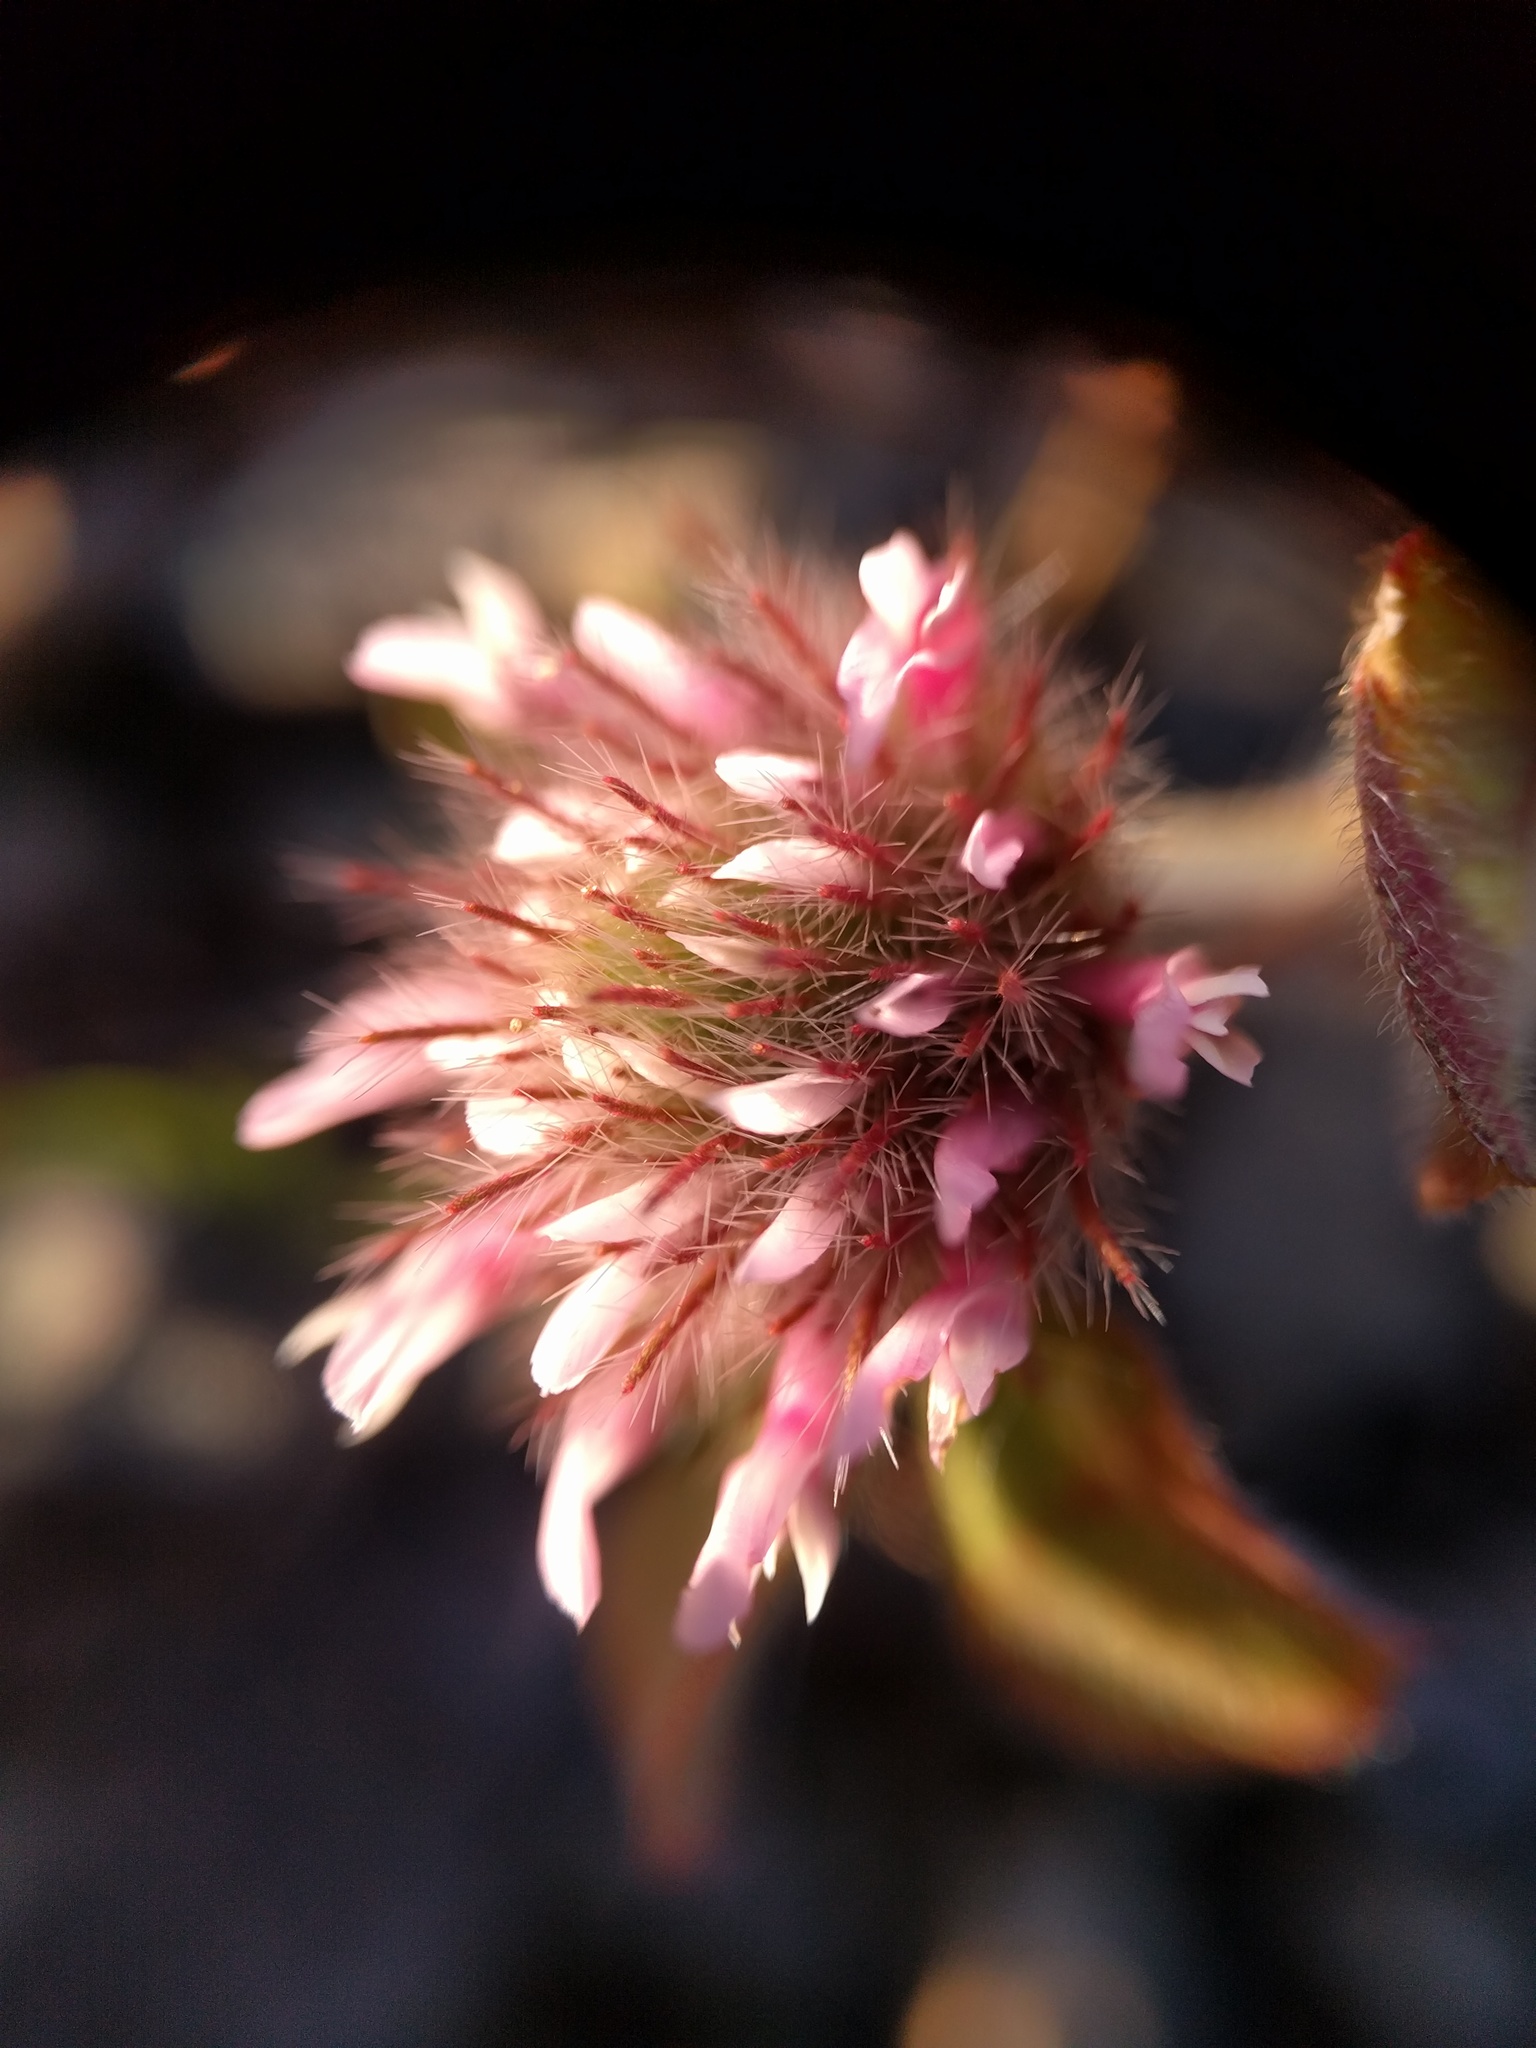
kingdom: Plantae
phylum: Tracheophyta
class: Magnoliopsida
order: Fabales
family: Fabaceae
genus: Trifolium
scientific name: Trifolium hirtum
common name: Rose clover
